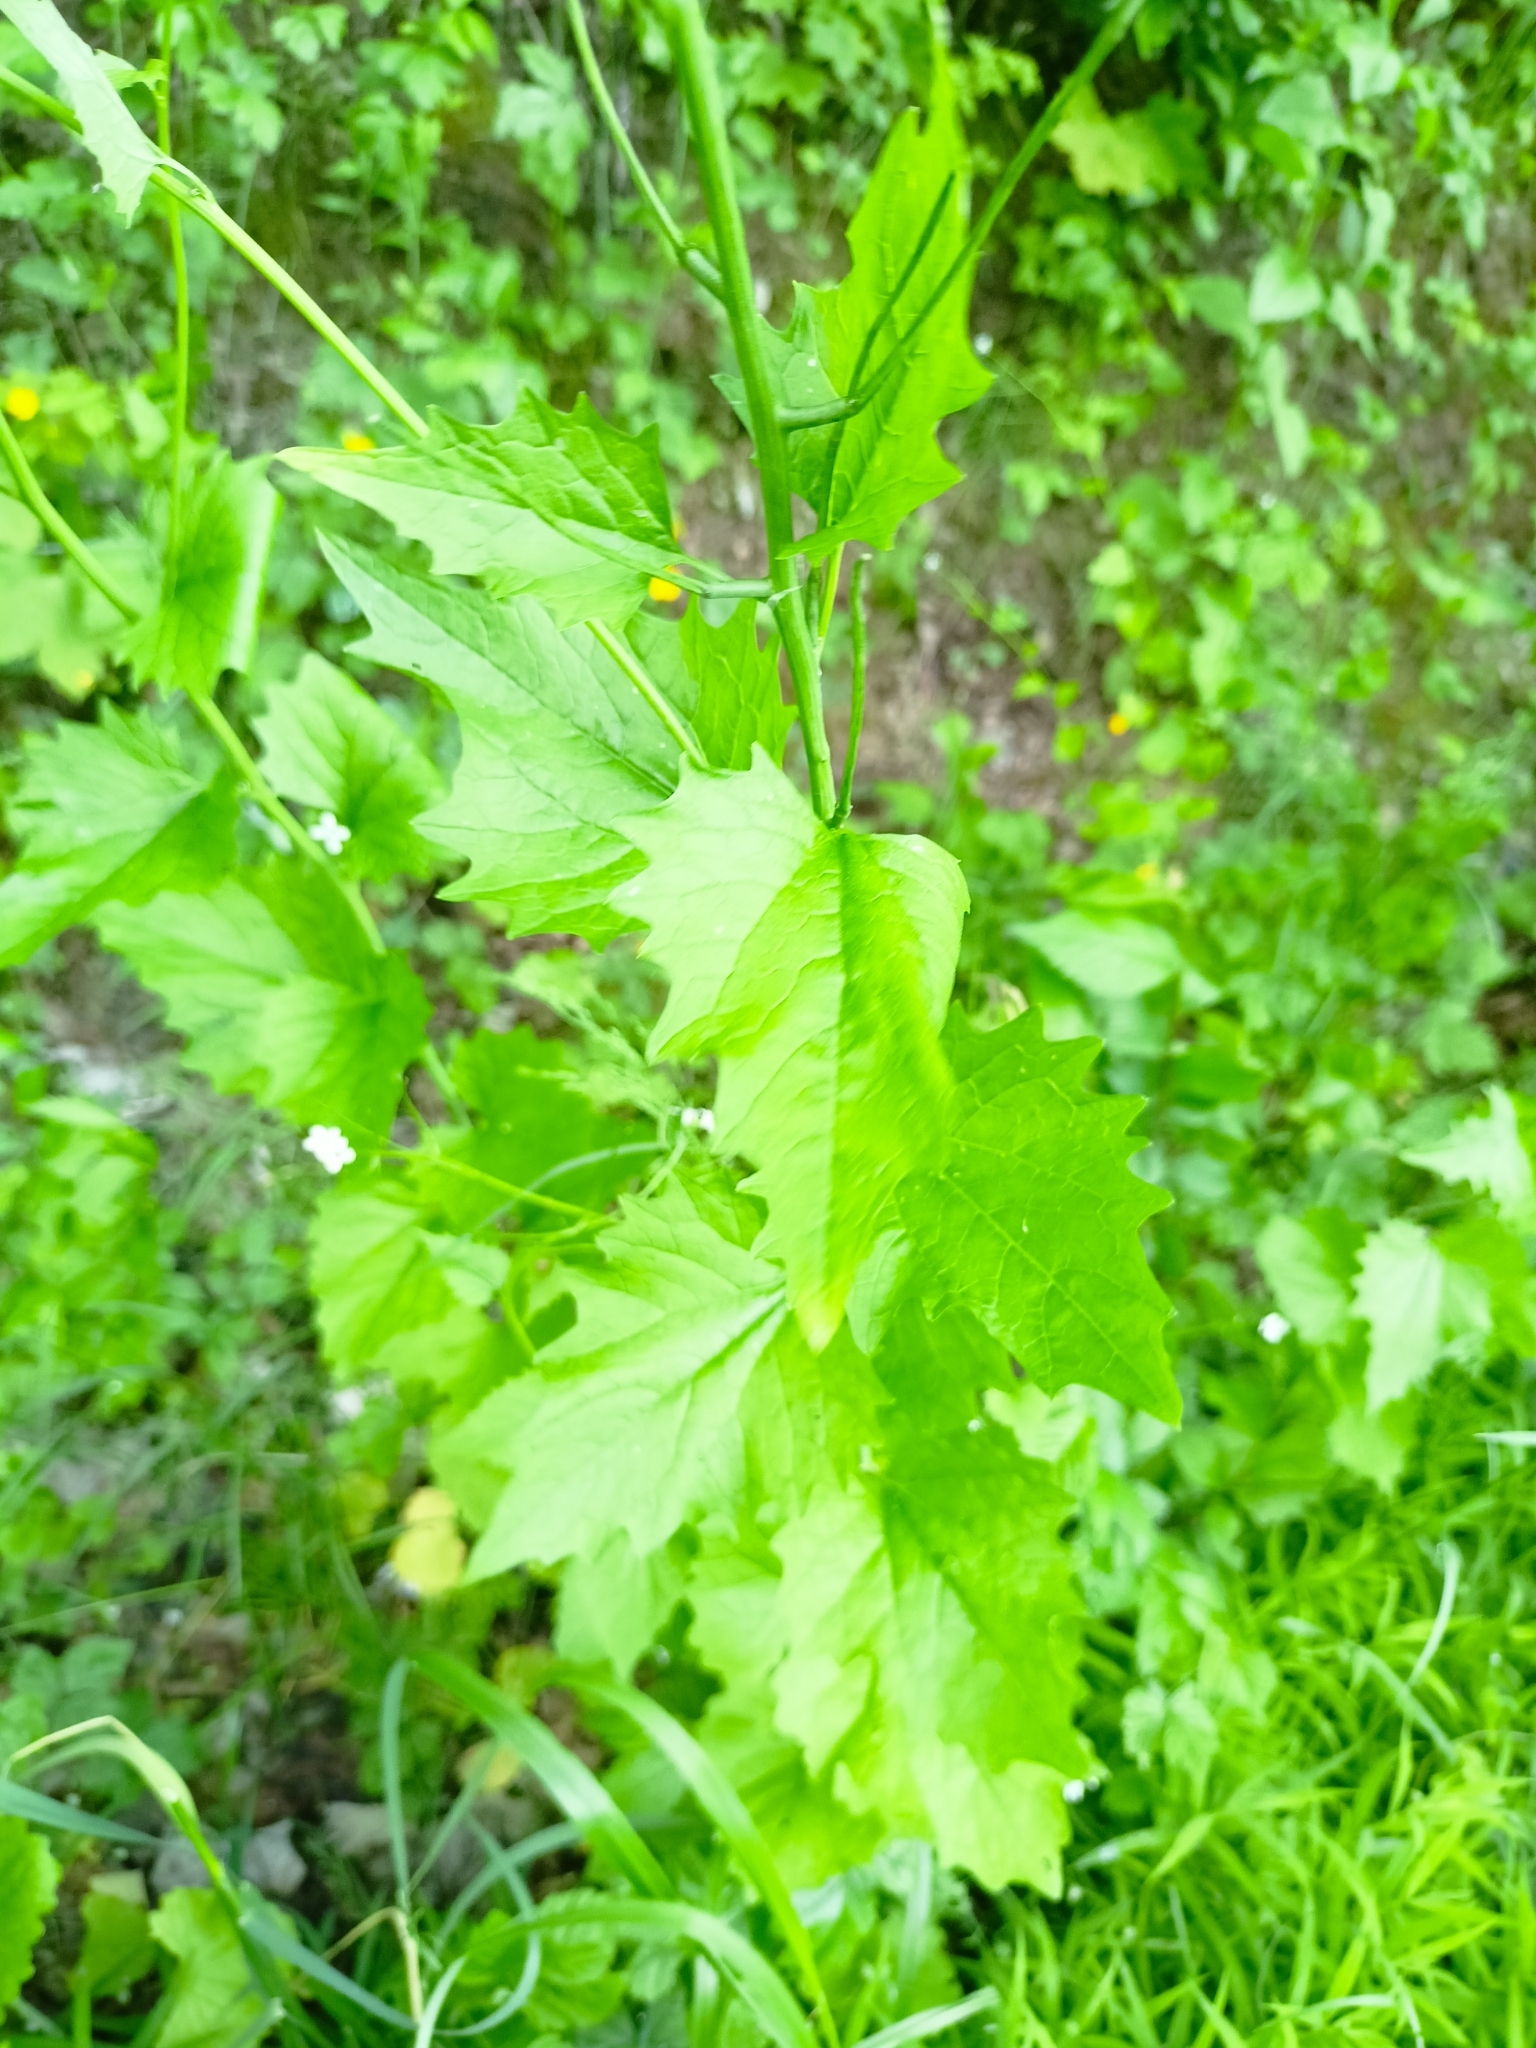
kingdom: Plantae
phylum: Tracheophyta
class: Magnoliopsida
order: Brassicales
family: Brassicaceae
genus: Alliaria
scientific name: Alliaria petiolata
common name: Garlic mustard
